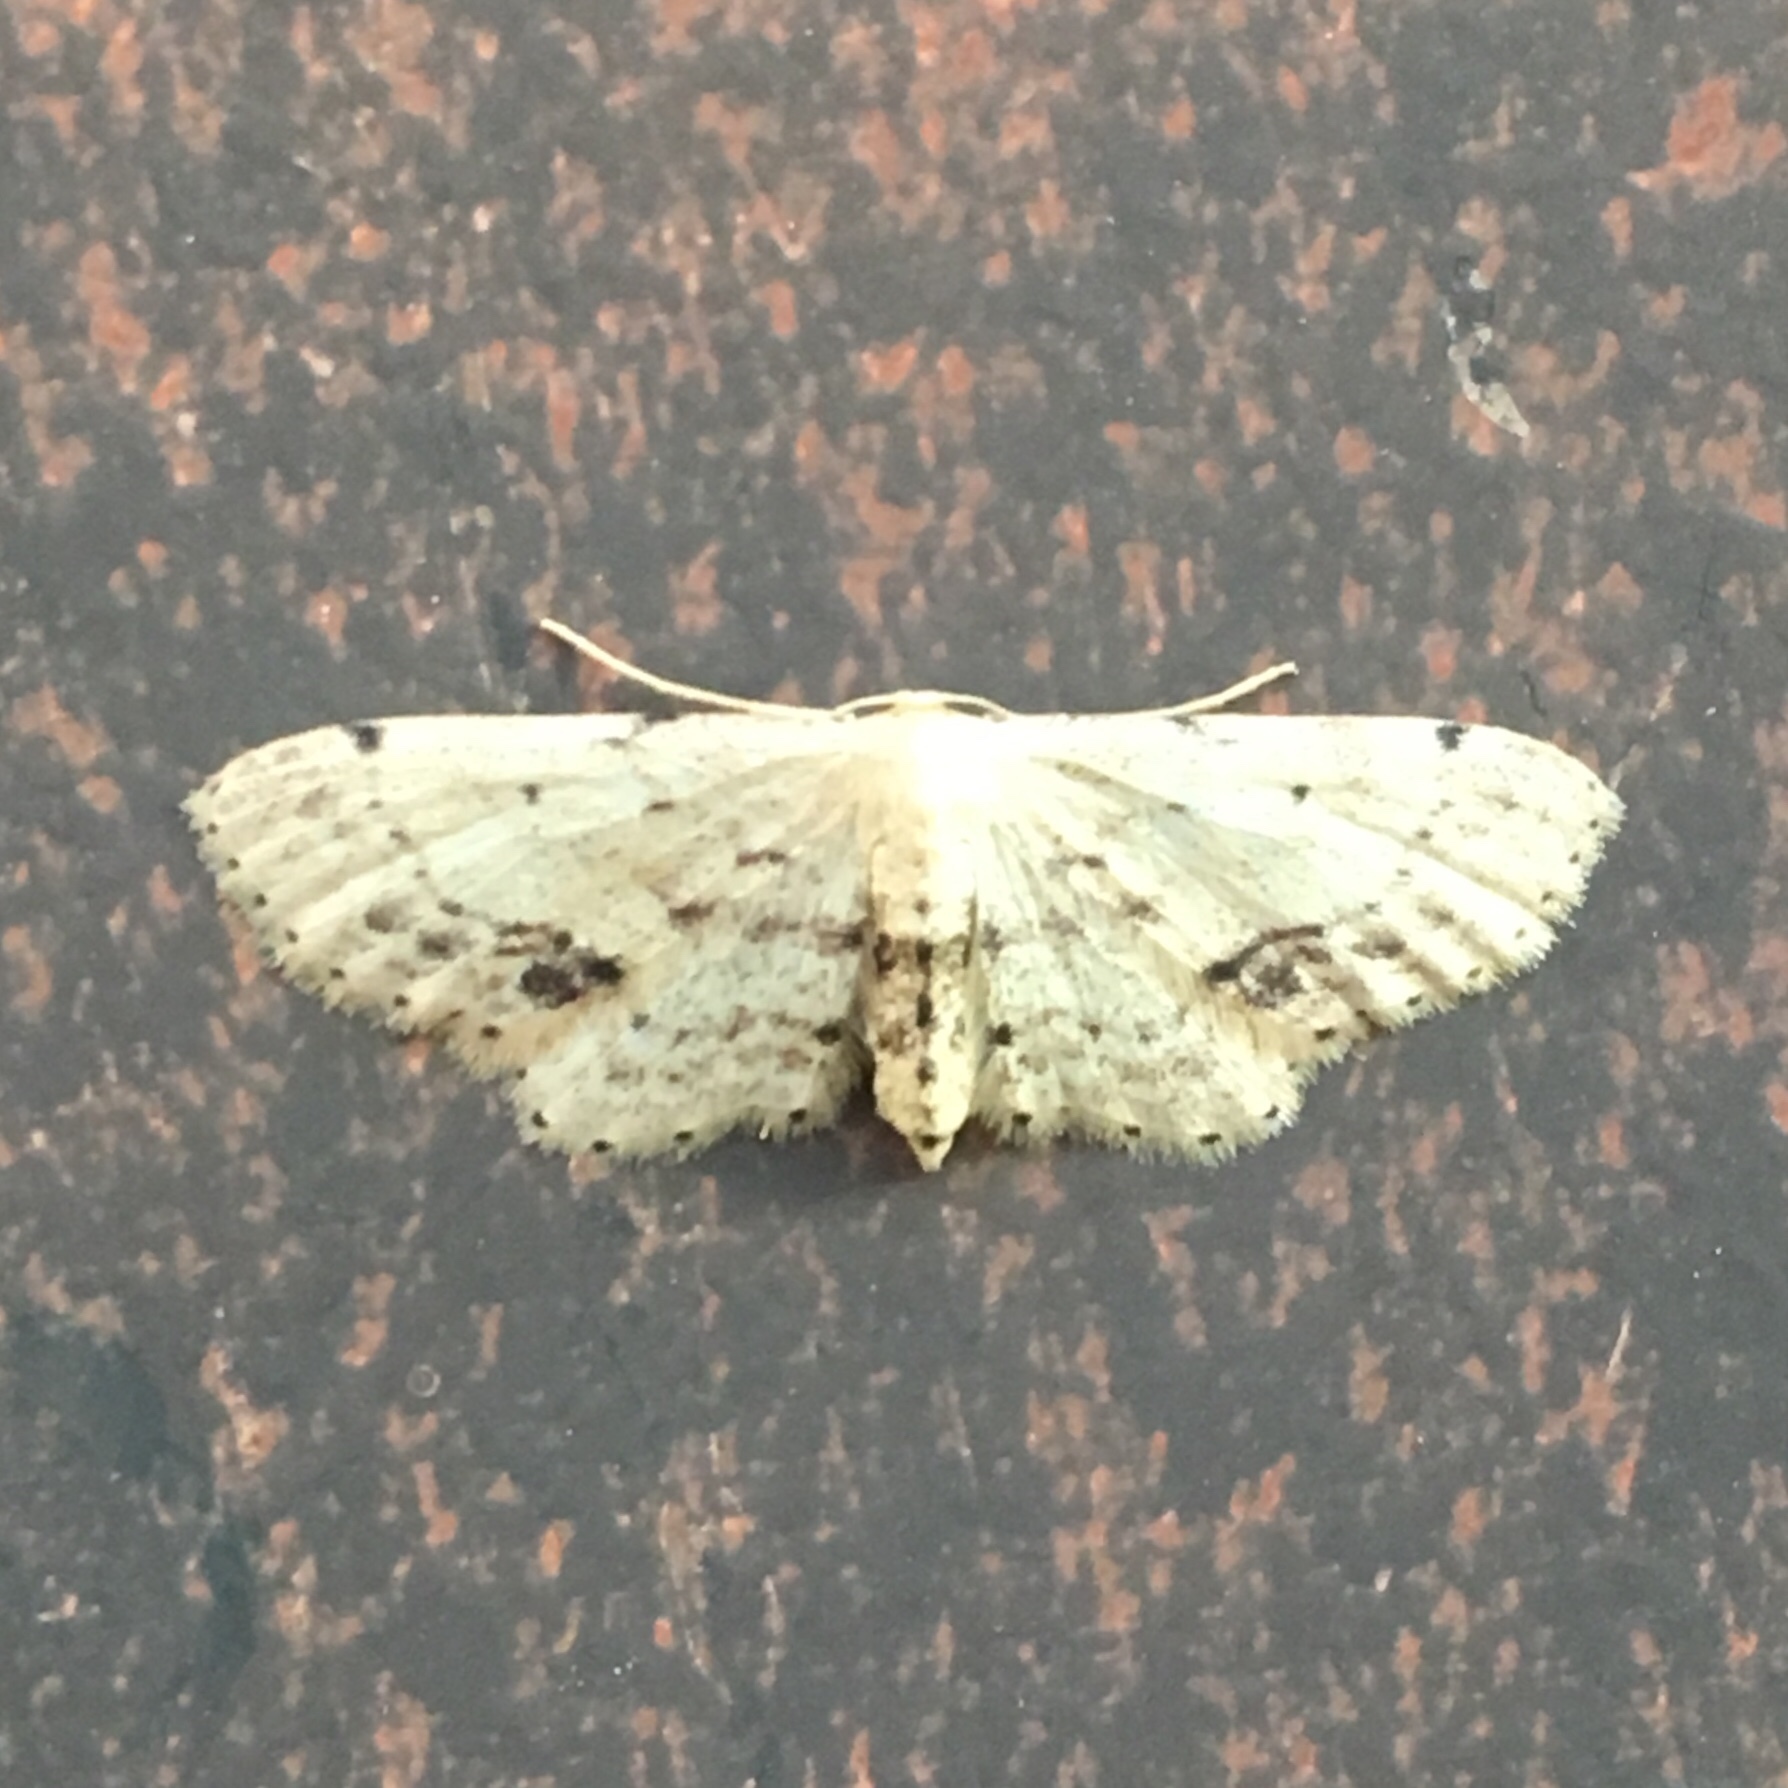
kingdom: Animalia
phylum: Arthropoda
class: Insecta
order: Lepidoptera
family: Geometridae
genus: Idaea
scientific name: Idaea dimidiata
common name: Single-dotted wave
